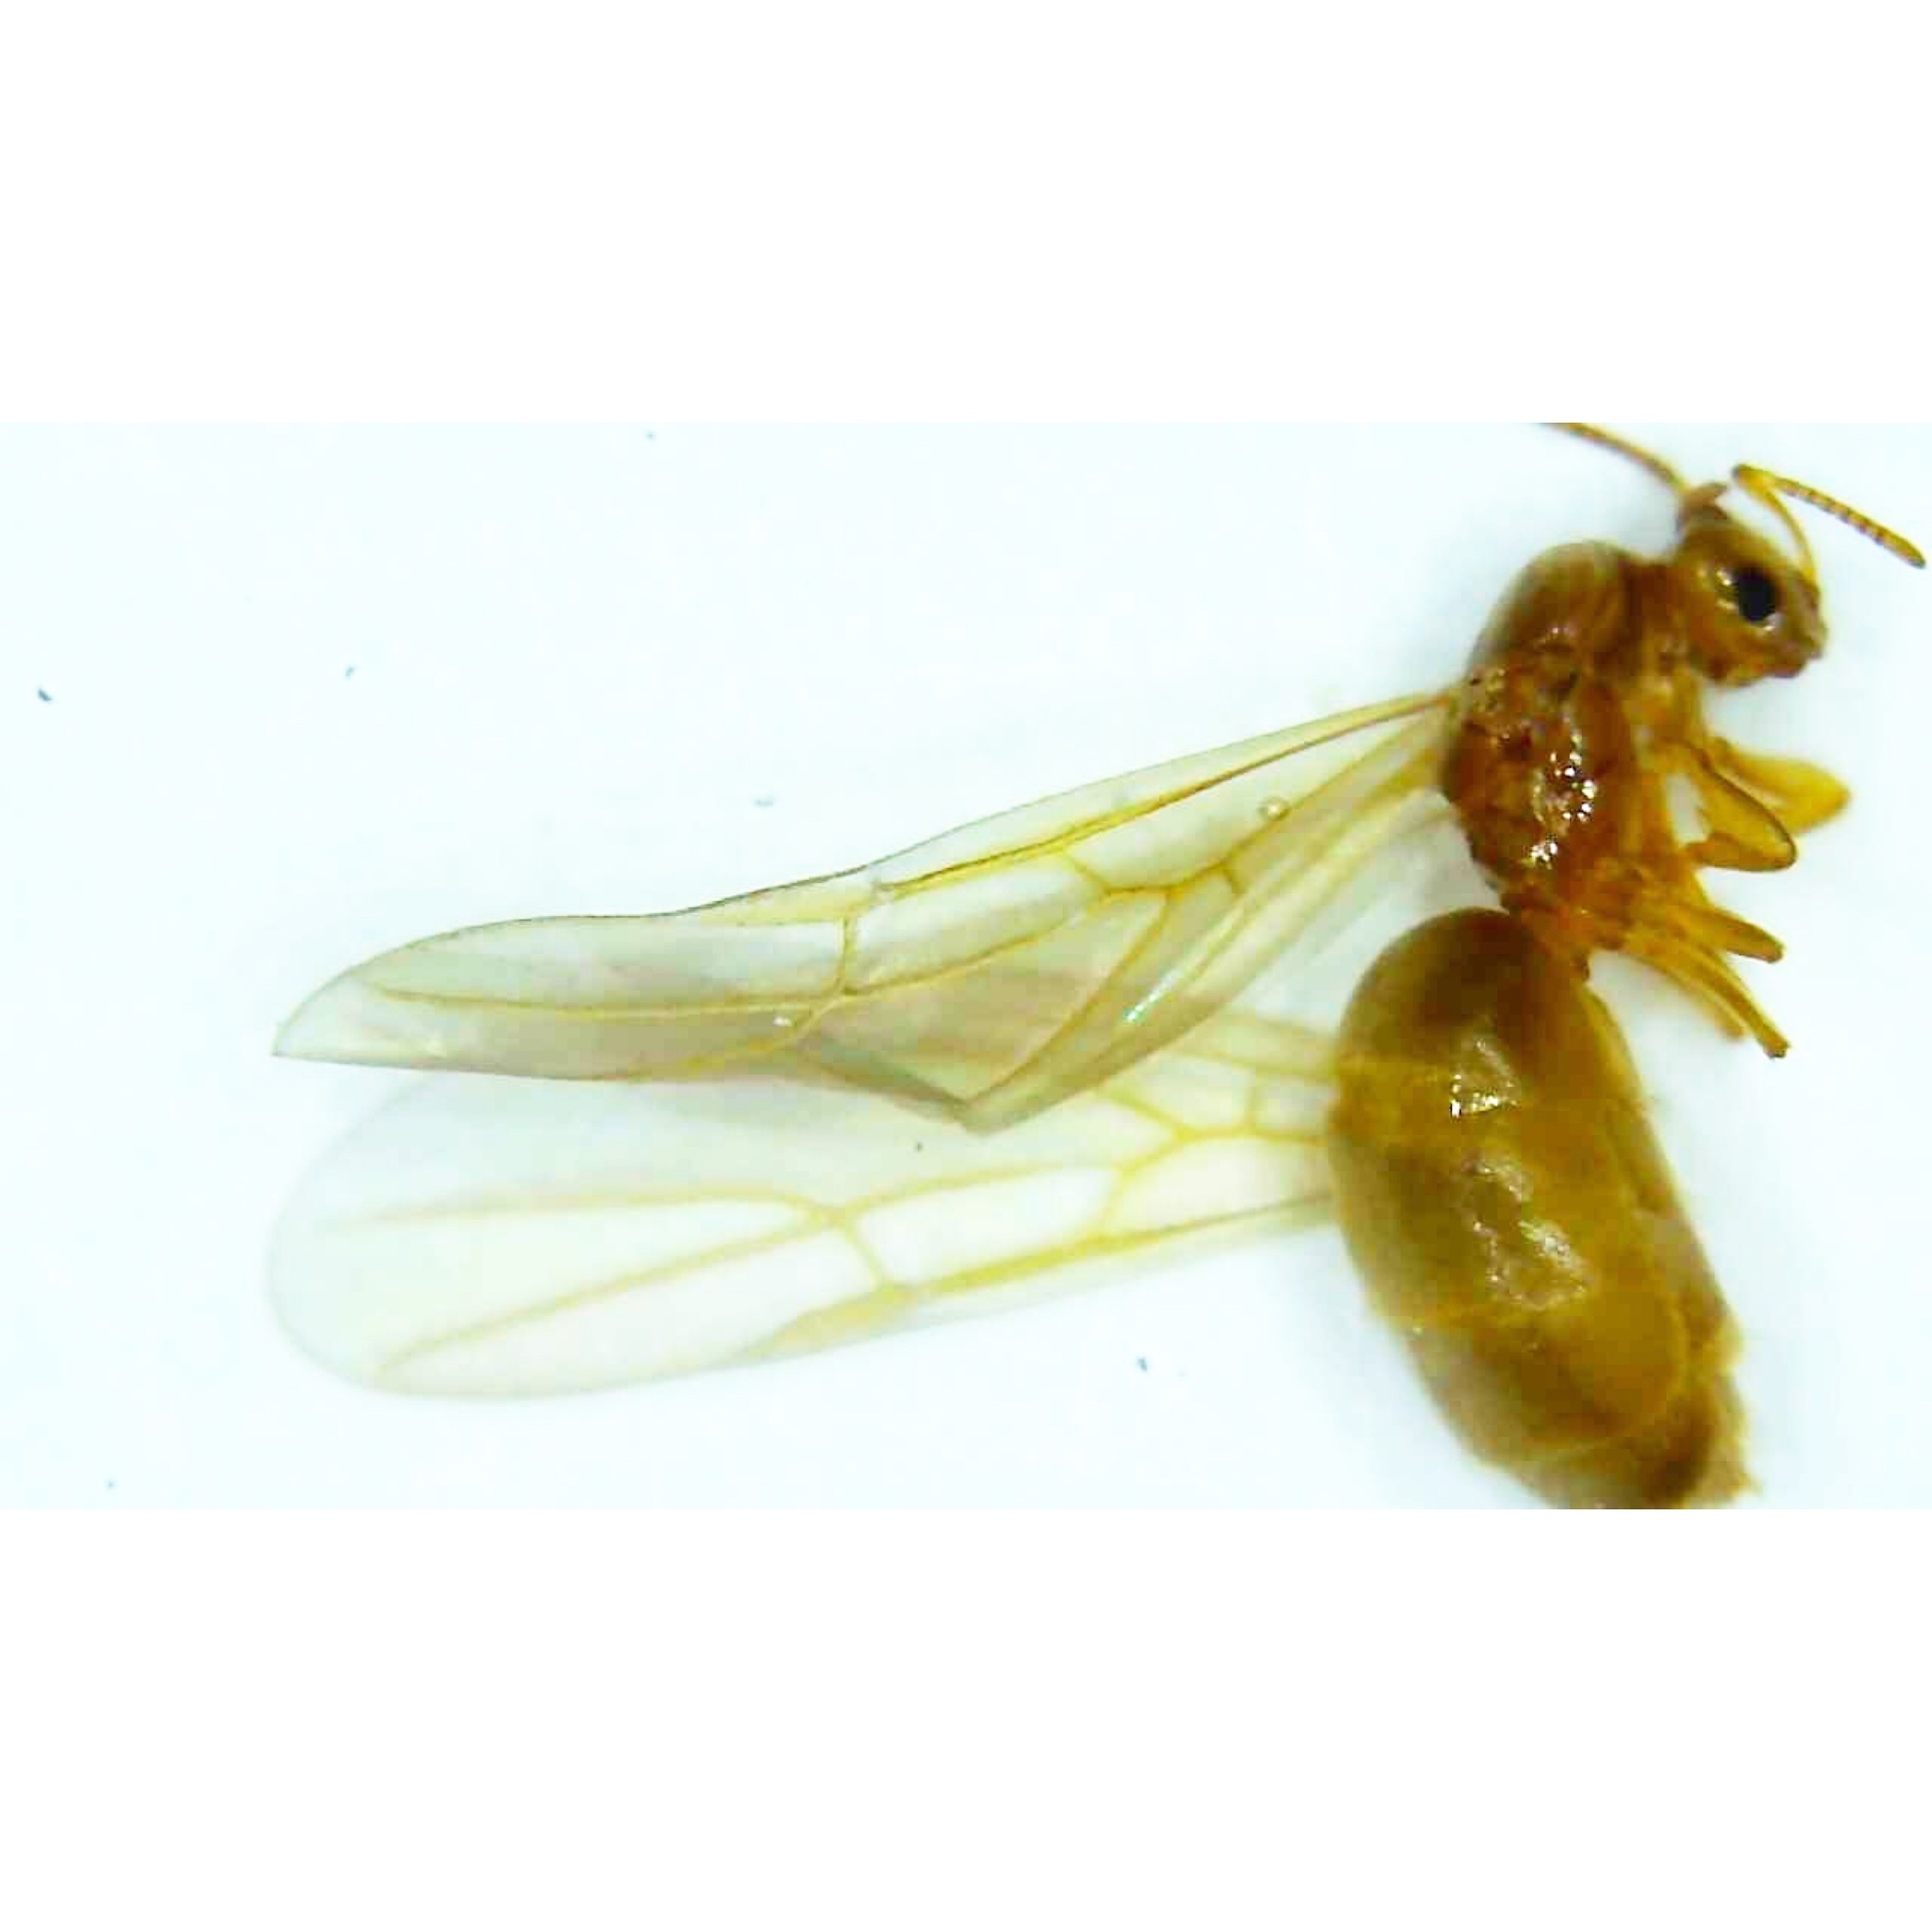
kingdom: Animalia
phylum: Arthropoda
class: Insecta
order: Hymenoptera
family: Formicidae
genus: Brachymyrmex
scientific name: Brachymyrmex depilis
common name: Hairless rover ant
